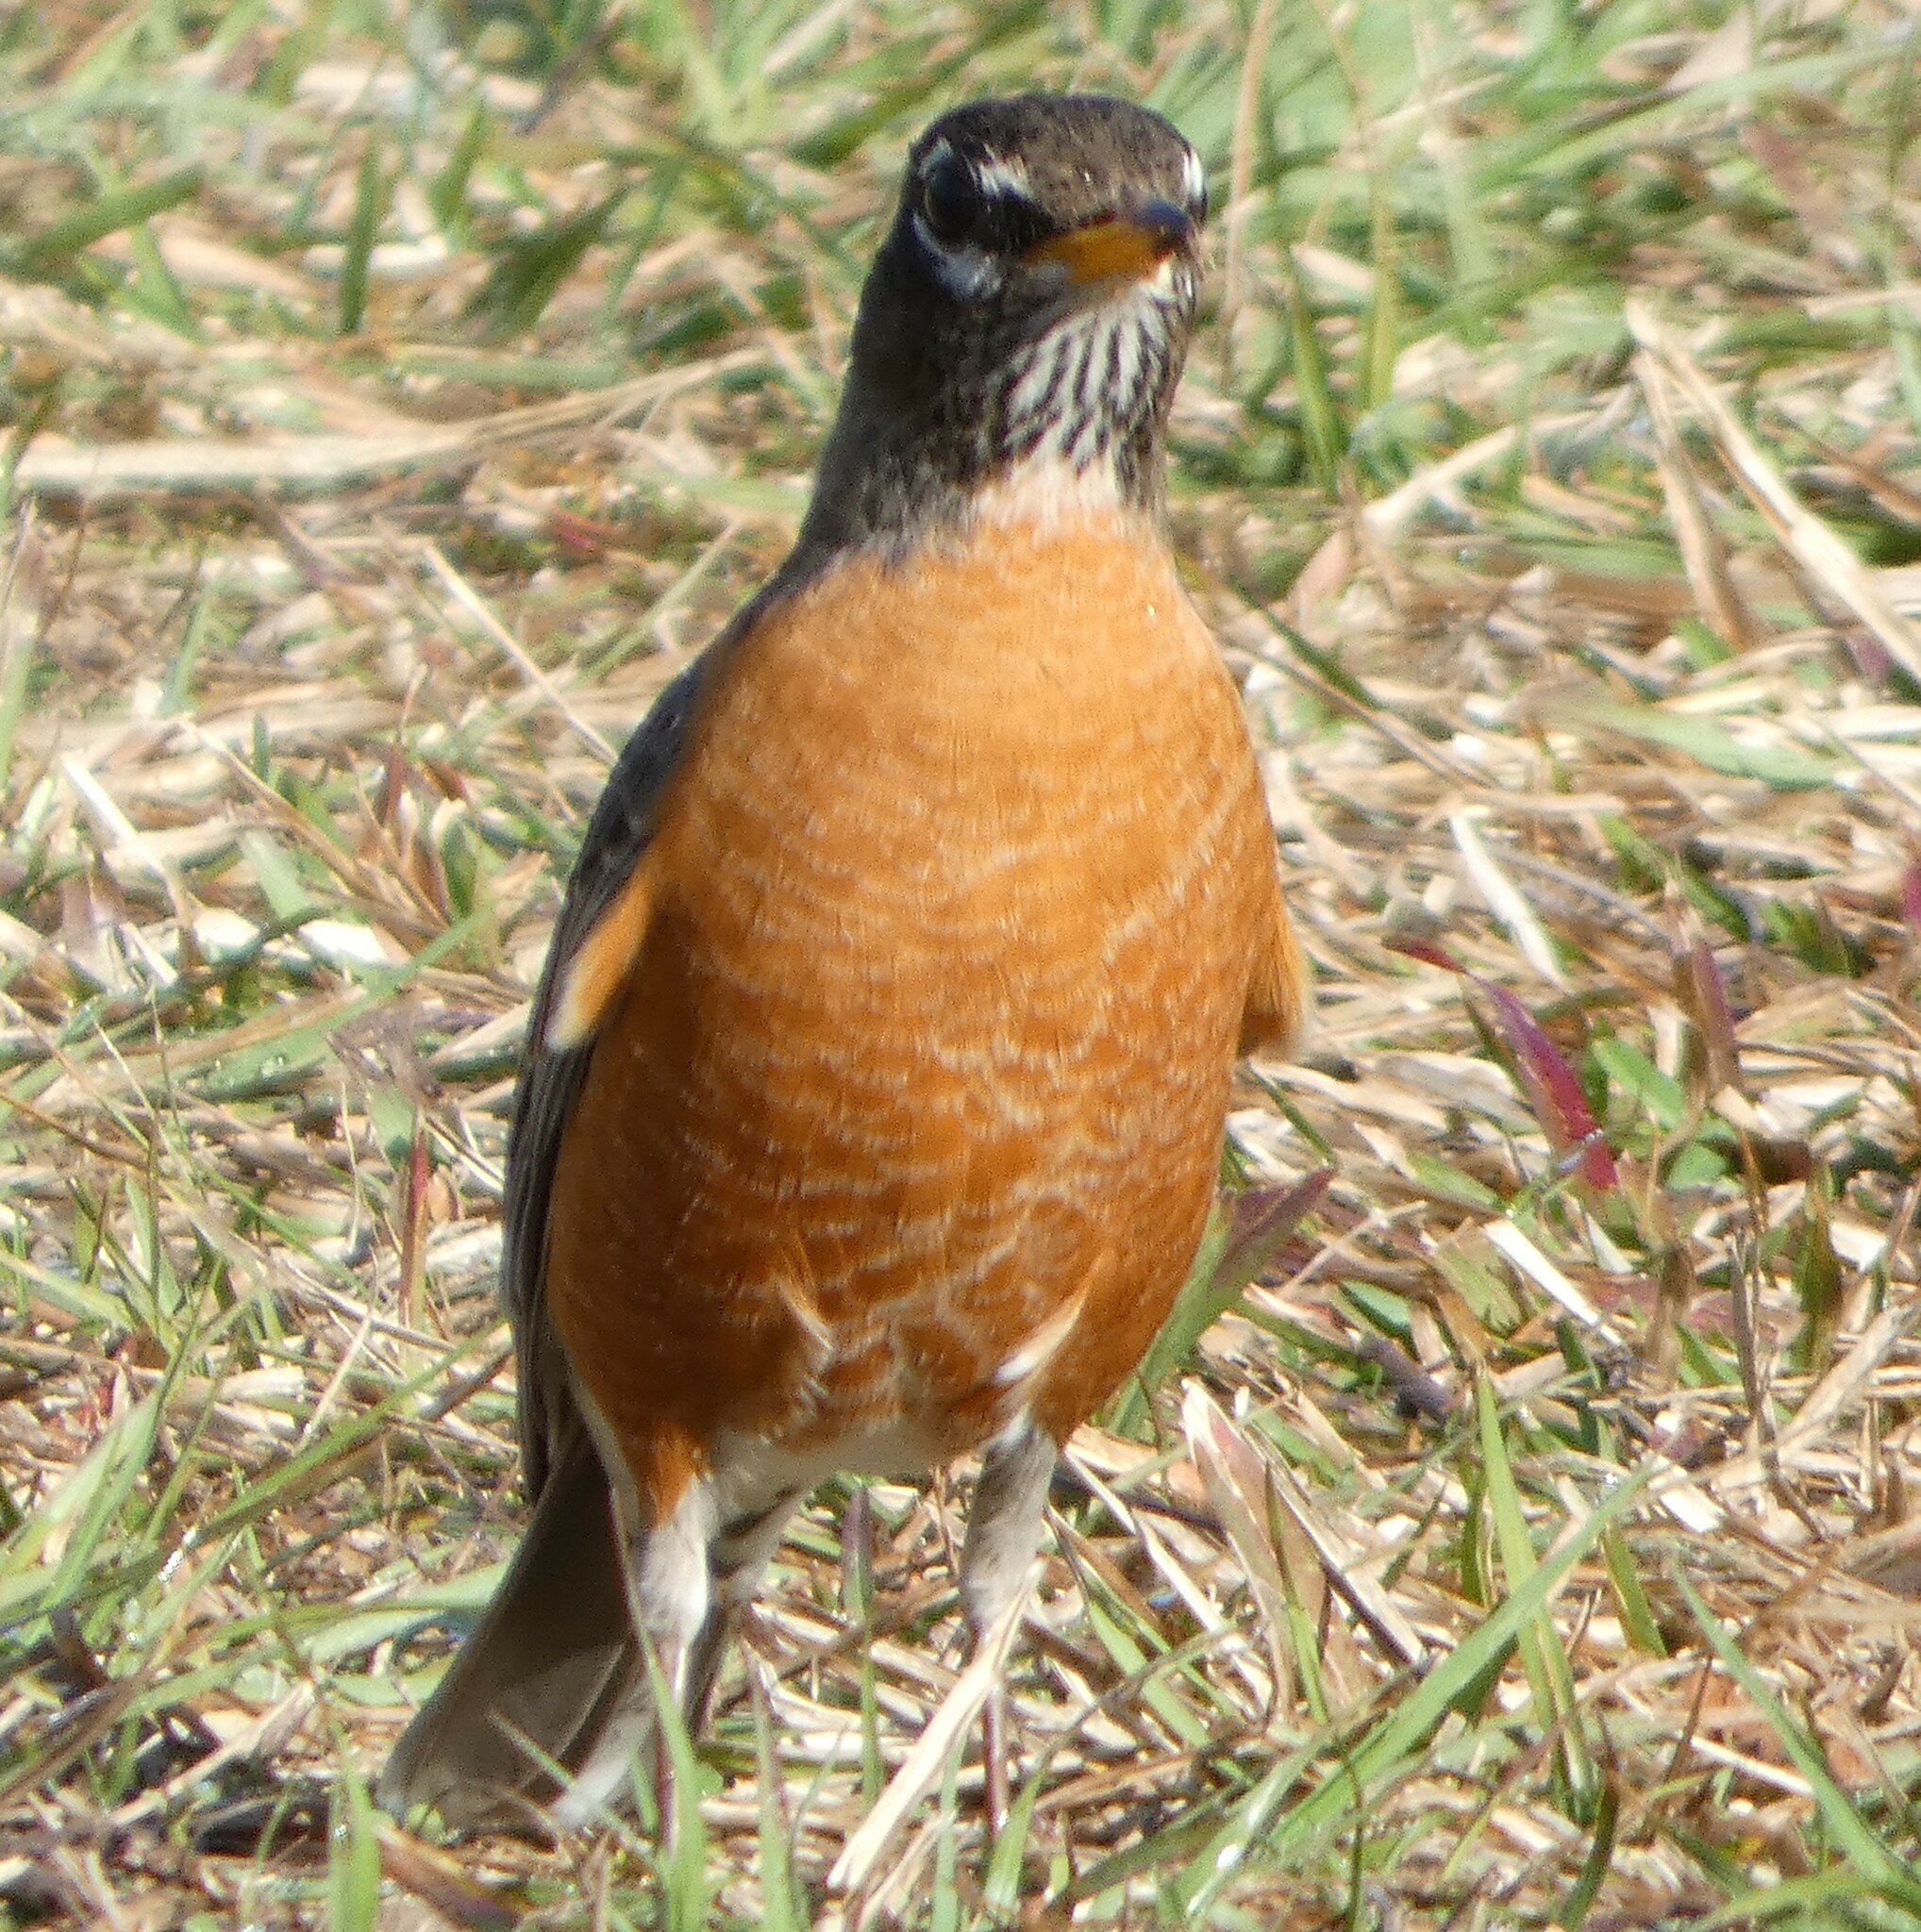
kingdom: Animalia
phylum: Chordata
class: Aves
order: Passeriformes
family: Turdidae
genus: Turdus
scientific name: Turdus migratorius
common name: American robin
